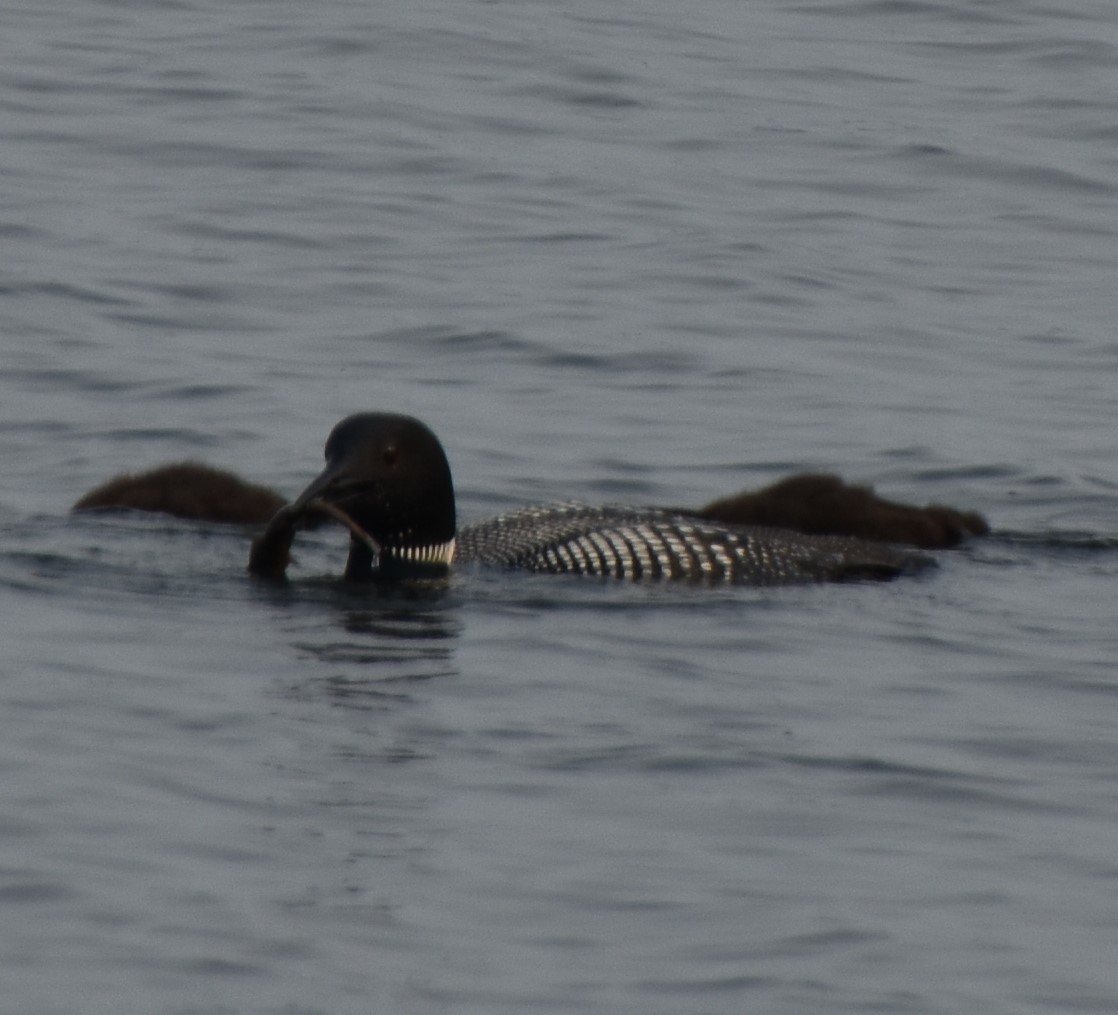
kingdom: Animalia
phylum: Chordata
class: Aves
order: Gaviiformes
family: Gaviidae
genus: Gavia
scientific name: Gavia immer
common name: Common loon
